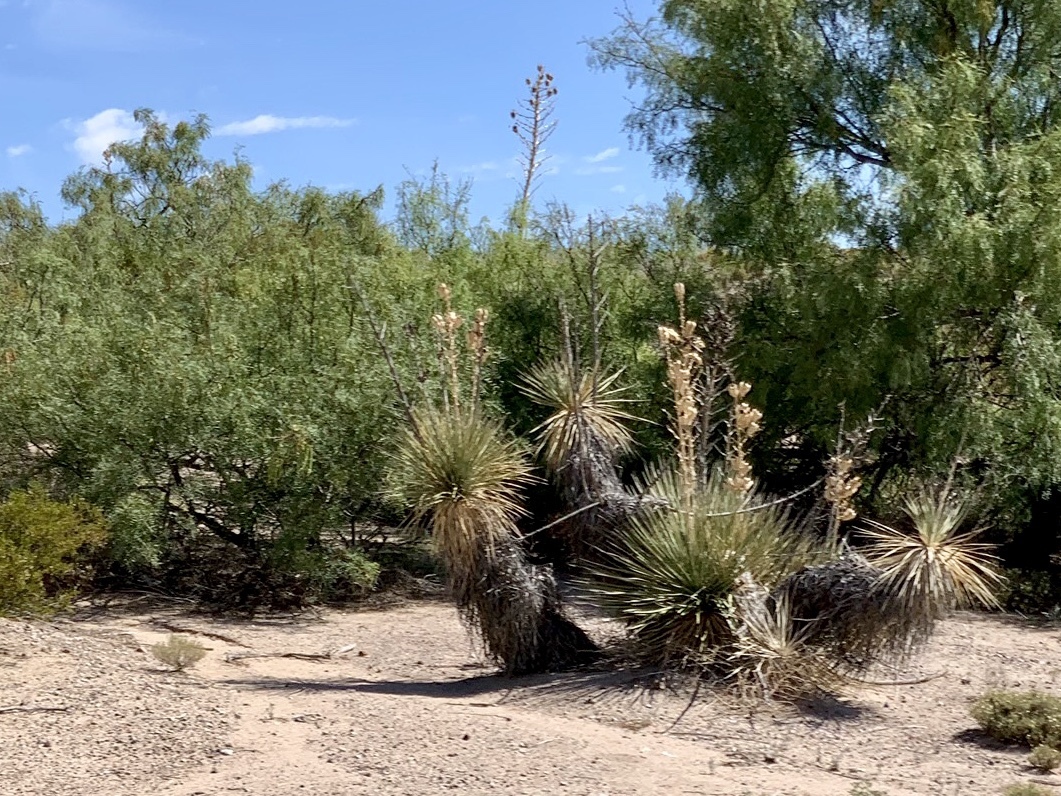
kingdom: Plantae
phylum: Tracheophyta
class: Liliopsida
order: Asparagales
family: Asparagaceae
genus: Yucca
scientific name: Yucca elata
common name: Palmella
